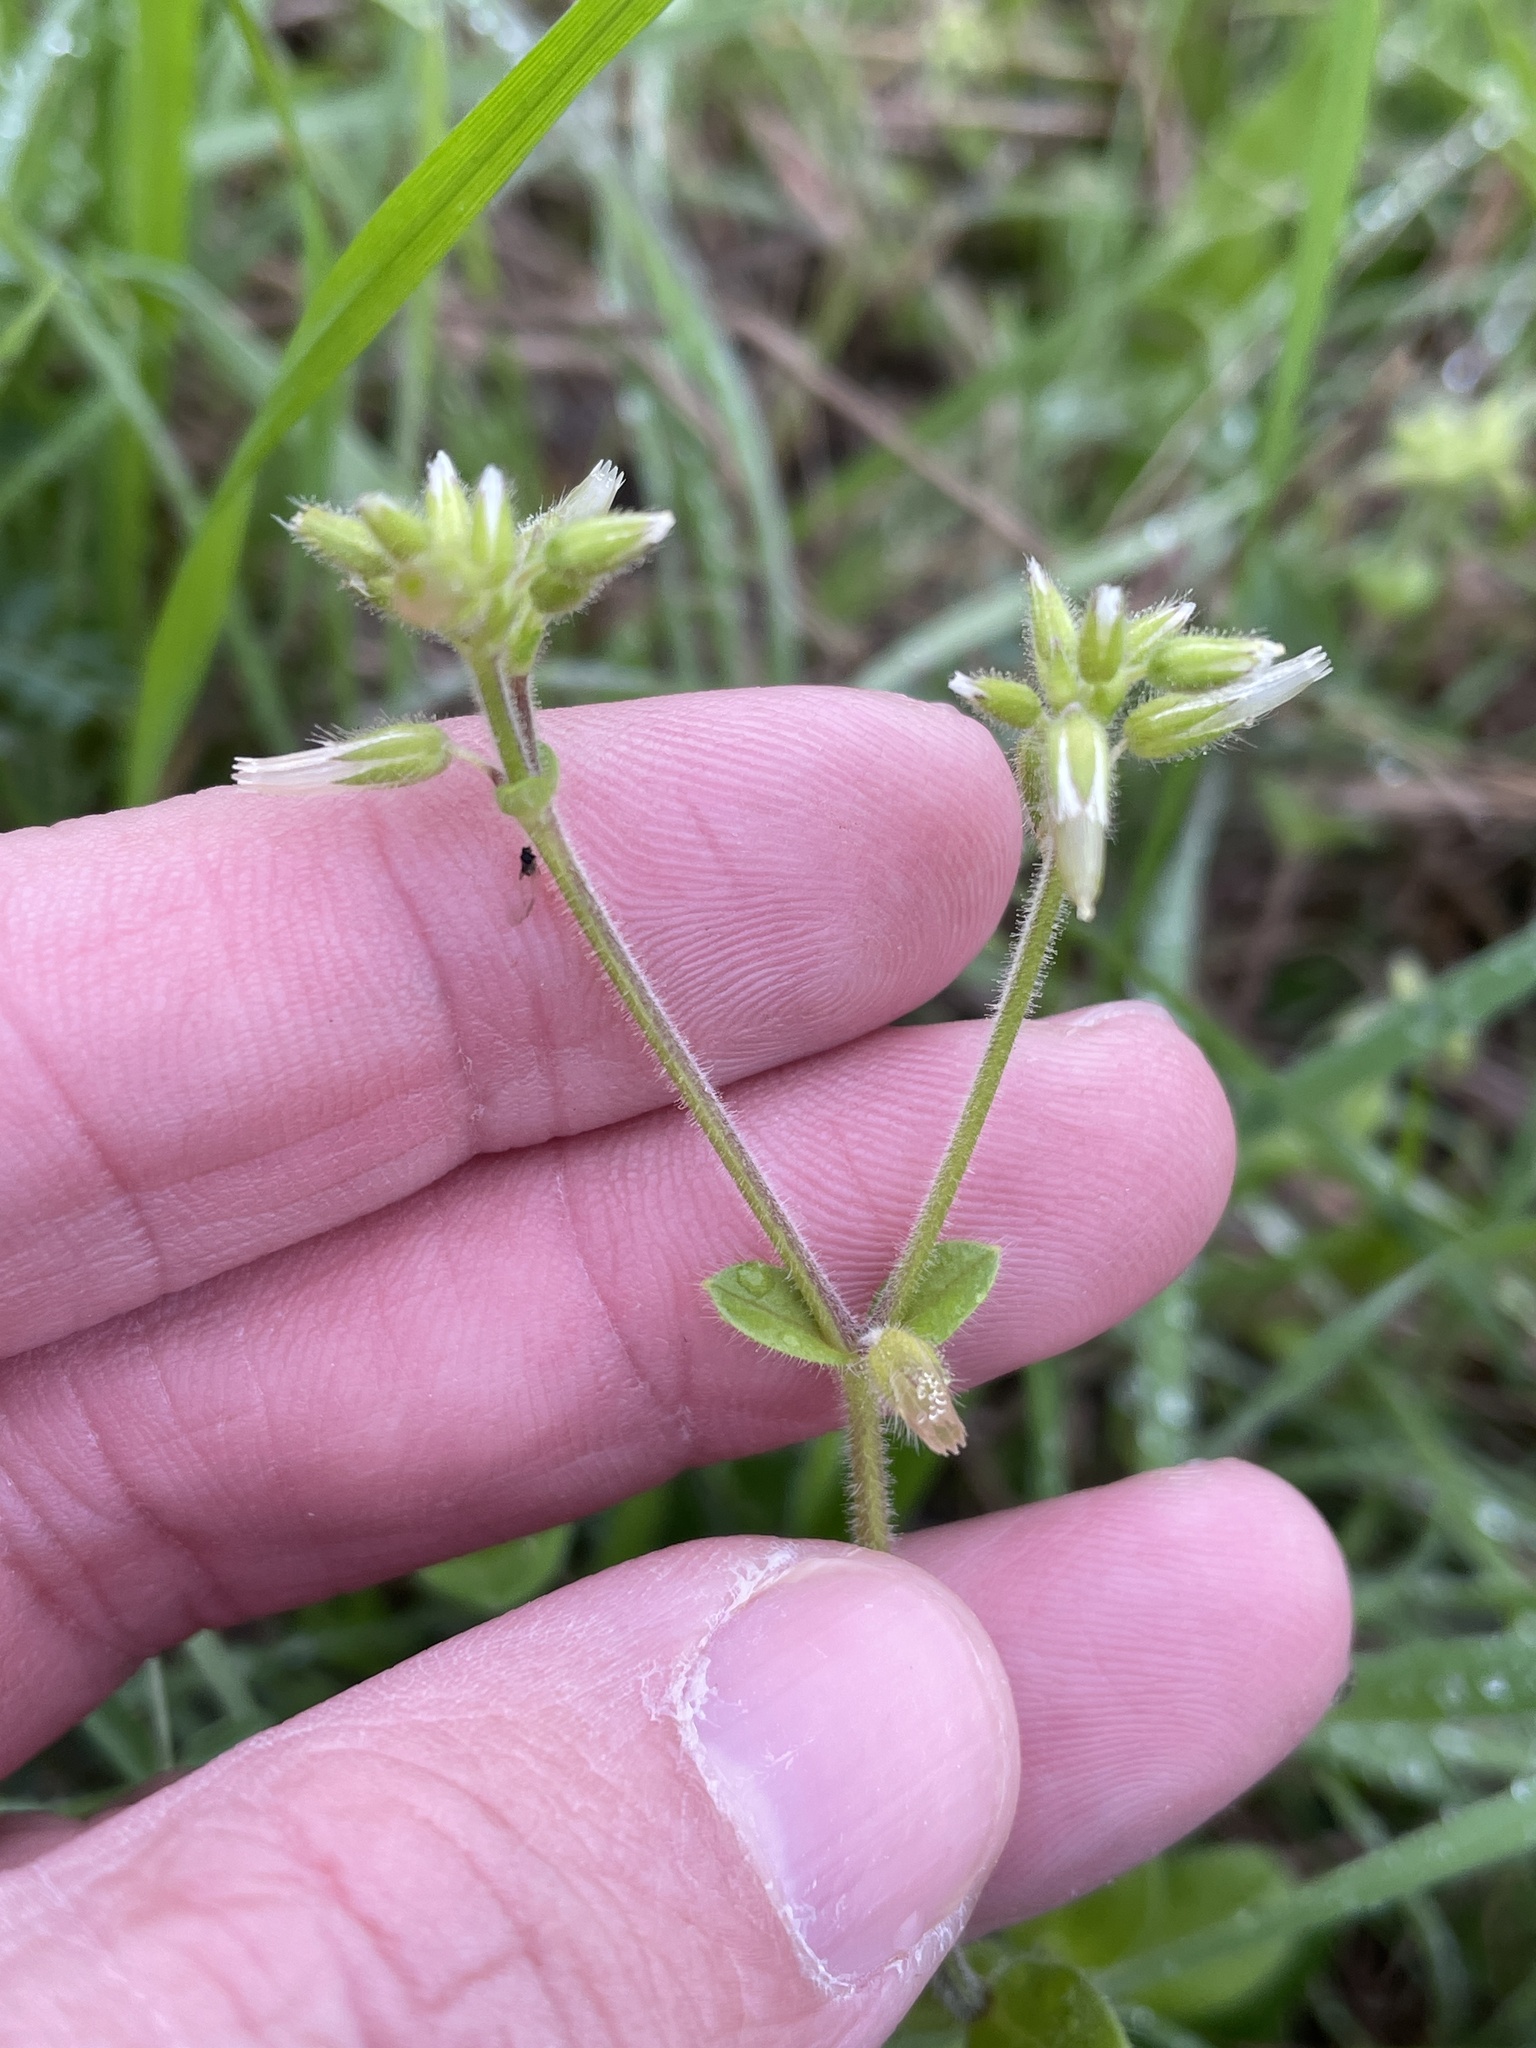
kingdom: Plantae
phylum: Tracheophyta
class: Magnoliopsida
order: Caryophyllales
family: Caryophyllaceae
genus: Cerastium
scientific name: Cerastium glomeratum
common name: Sticky chickweed
